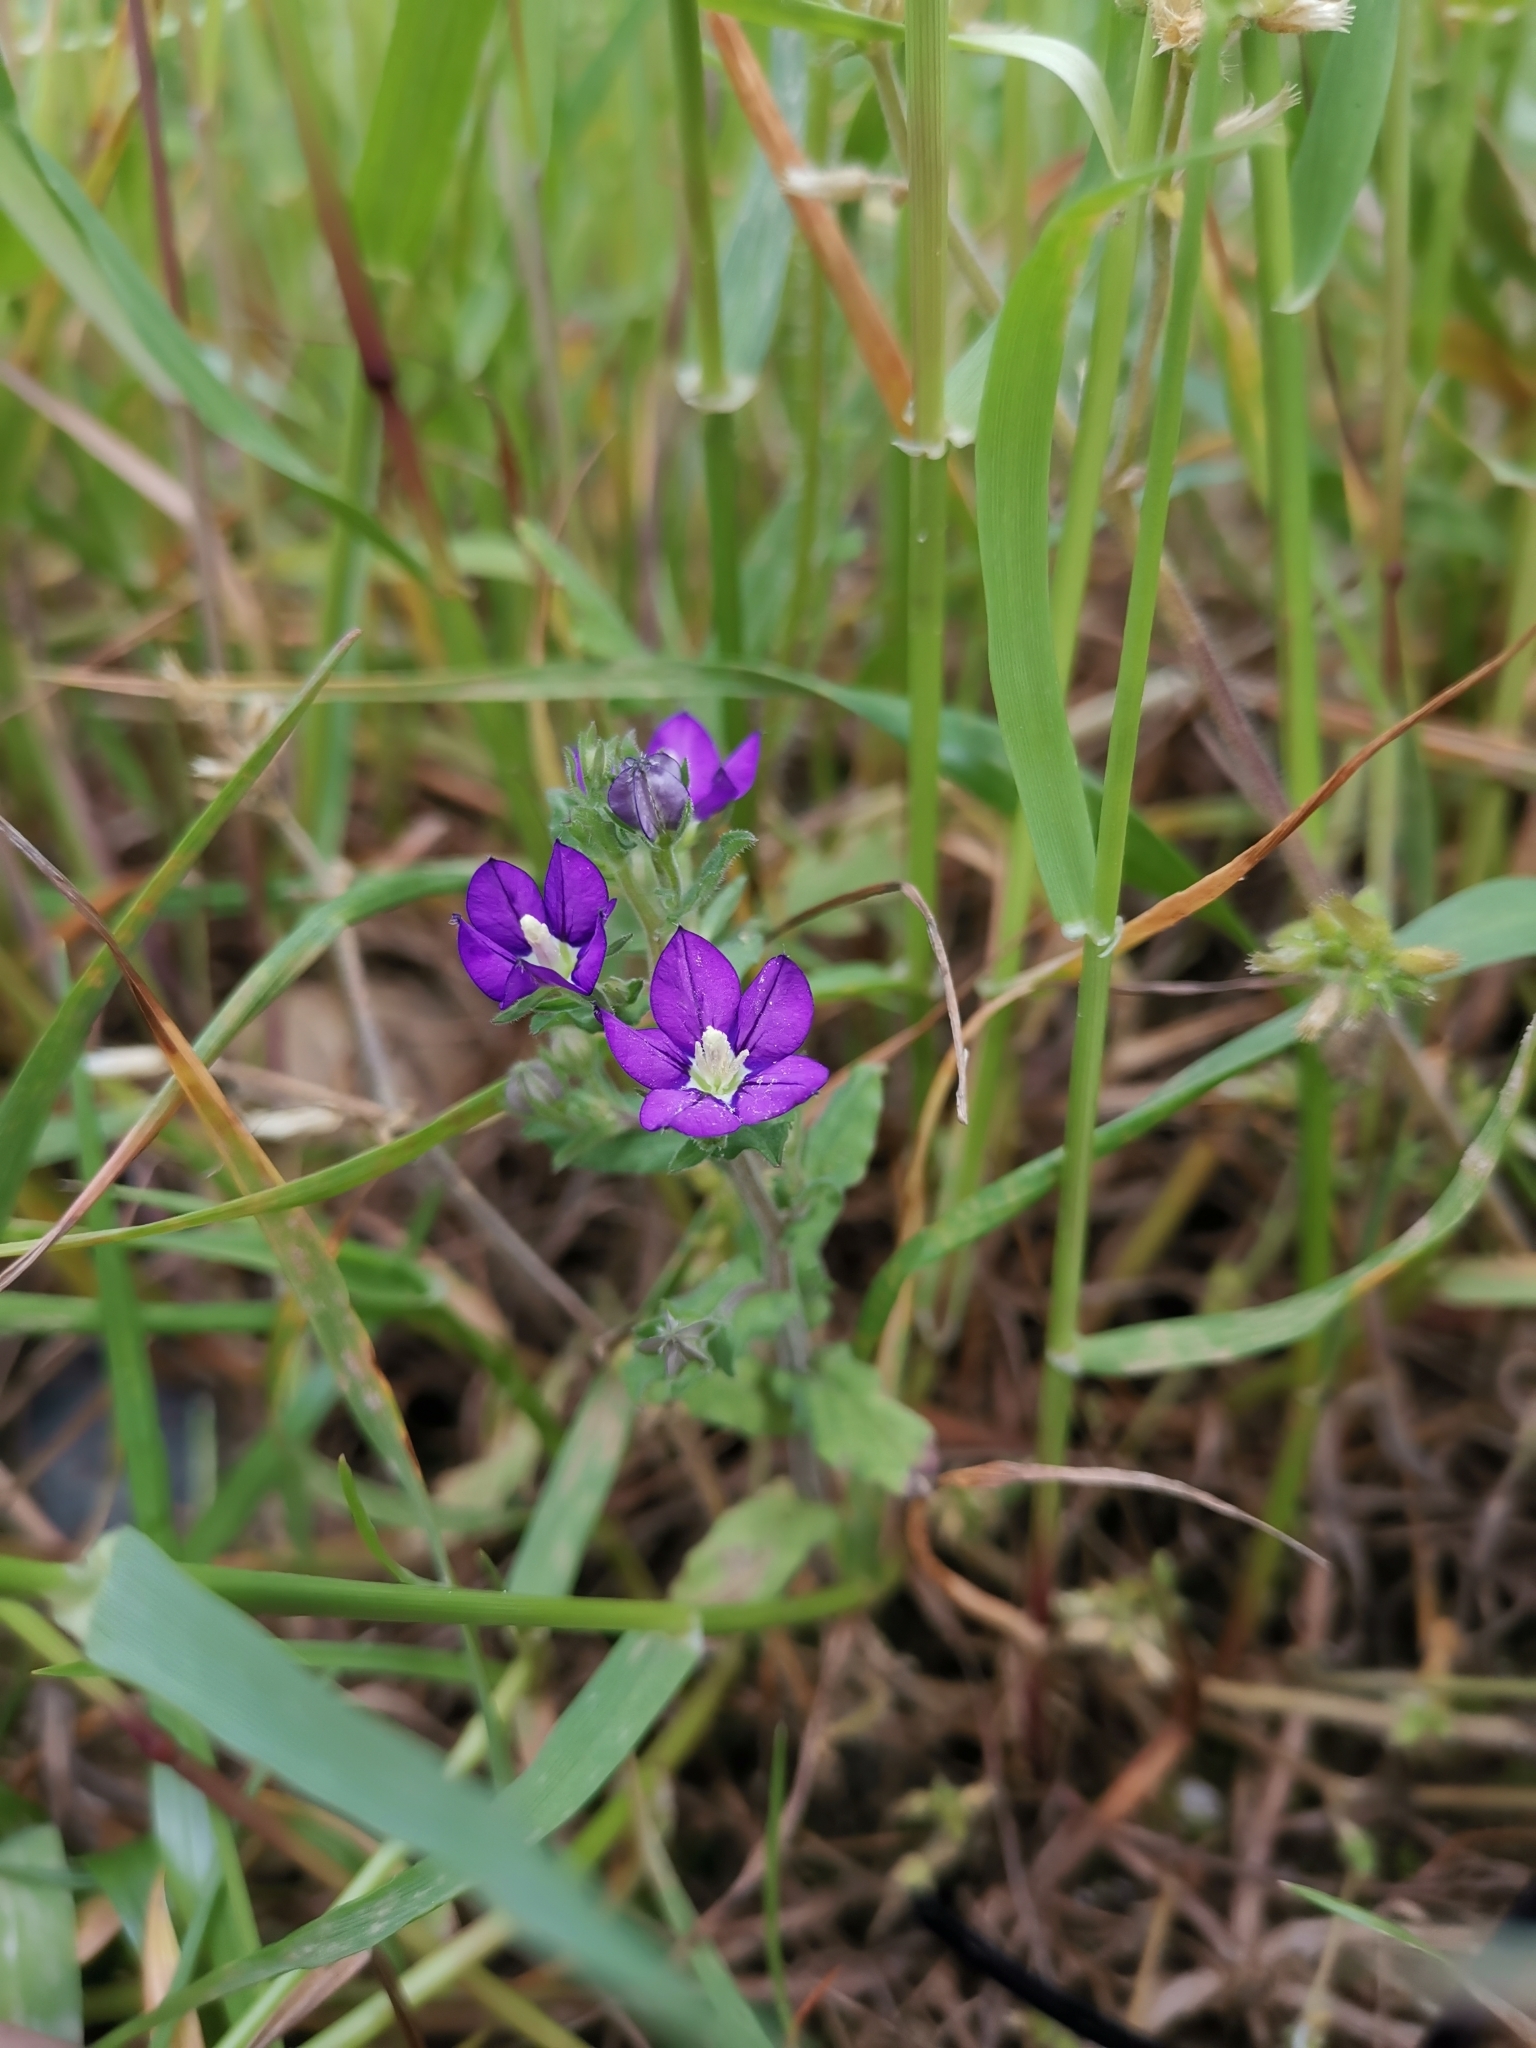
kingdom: Plantae
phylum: Tracheophyta
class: Magnoliopsida
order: Asterales
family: Campanulaceae
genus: Legousia
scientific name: Legousia speculum-veneris
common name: Large venus's-looking-glass
